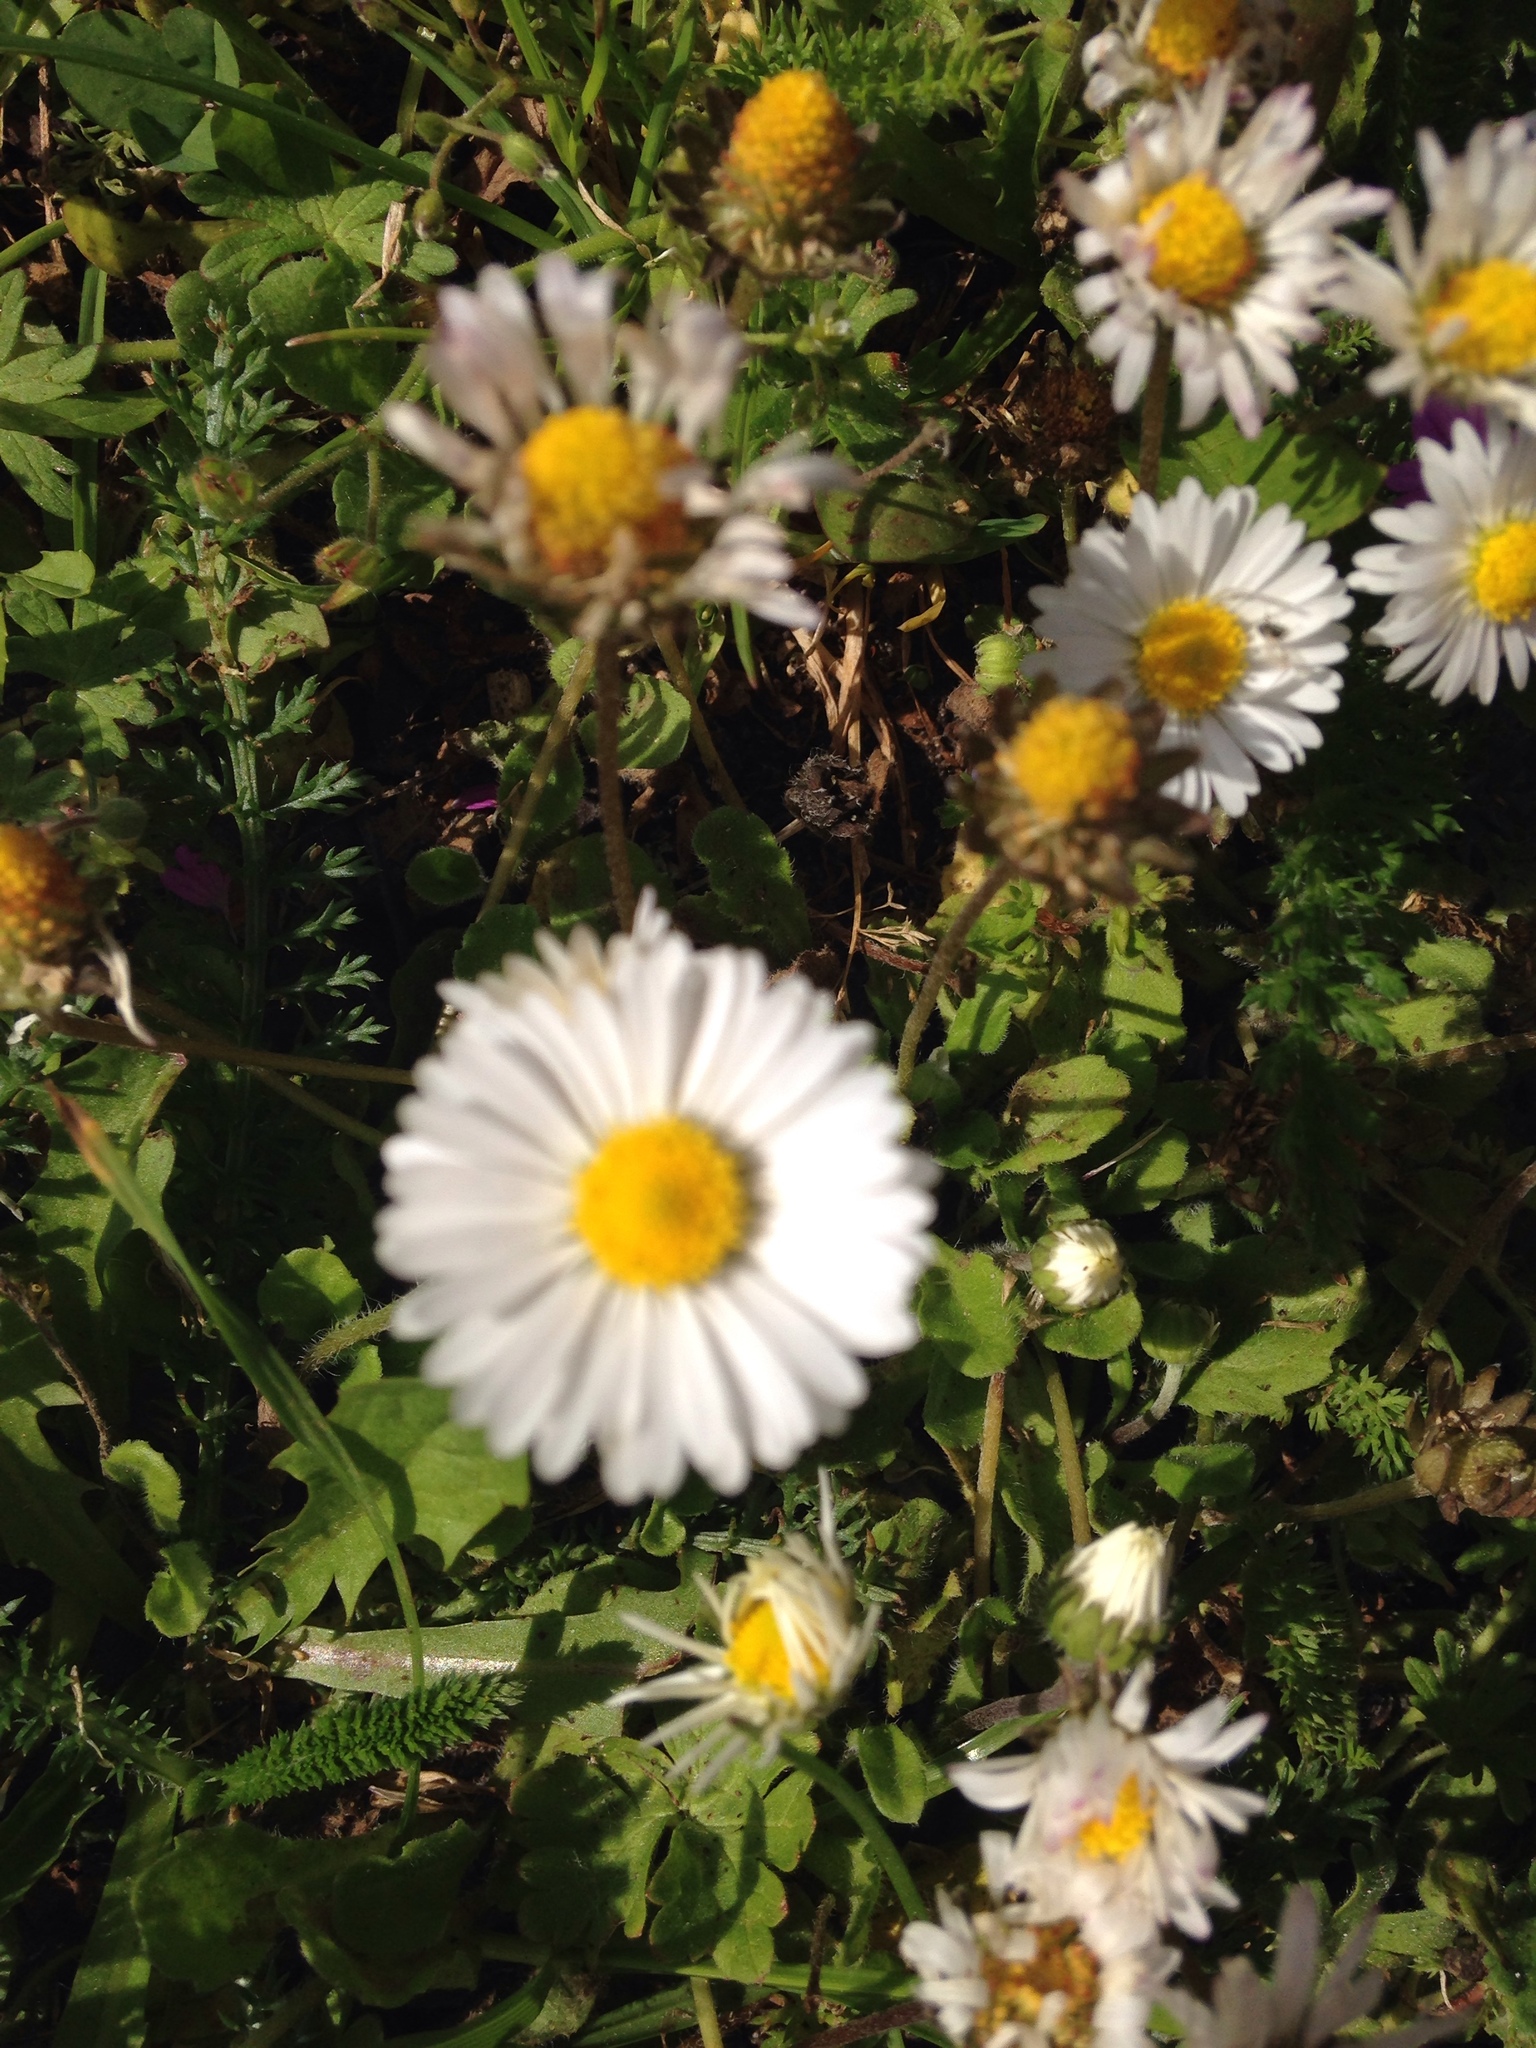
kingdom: Plantae
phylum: Tracheophyta
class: Magnoliopsida
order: Asterales
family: Asteraceae
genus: Bellis
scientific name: Bellis perennis
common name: Lawndaisy
